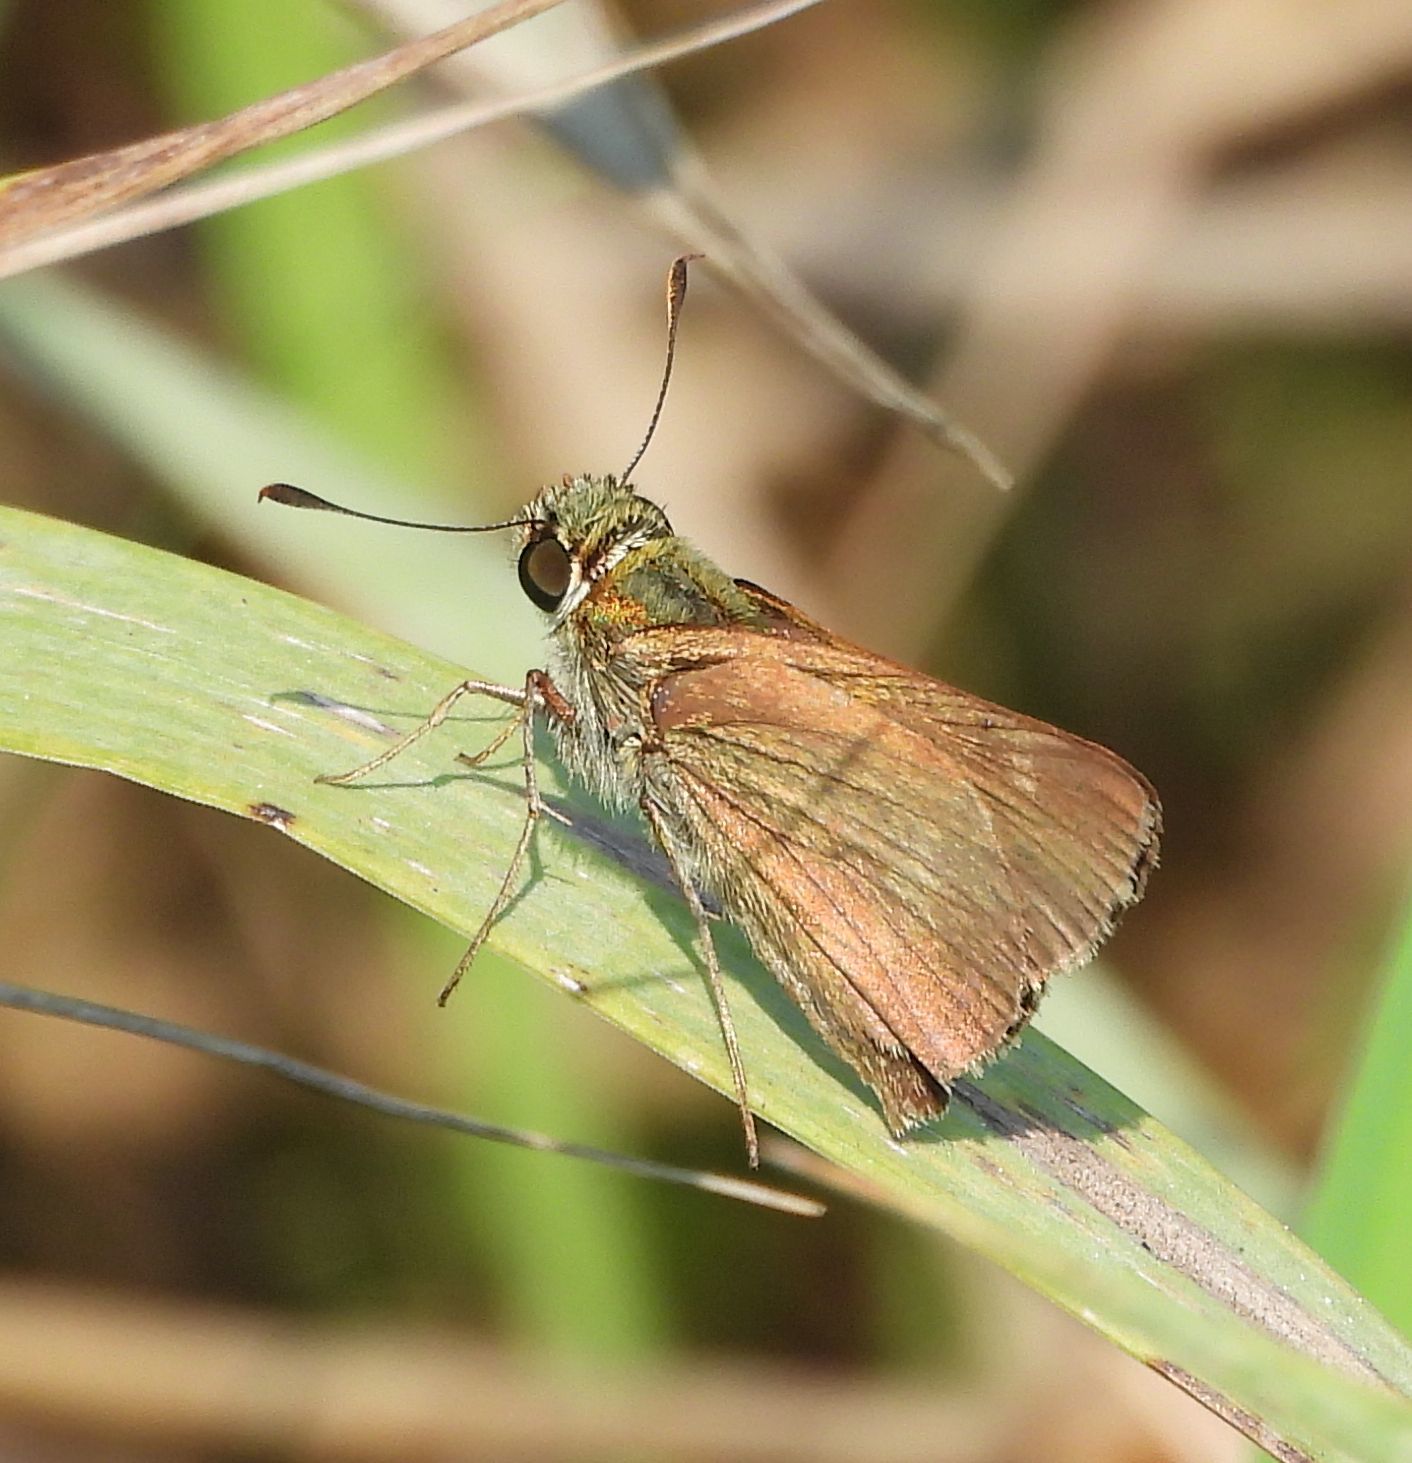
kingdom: Animalia
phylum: Arthropoda
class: Insecta
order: Lepidoptera
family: Hesperiidae
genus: Euphyes
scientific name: Euphyes vestris
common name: Dun skipper
